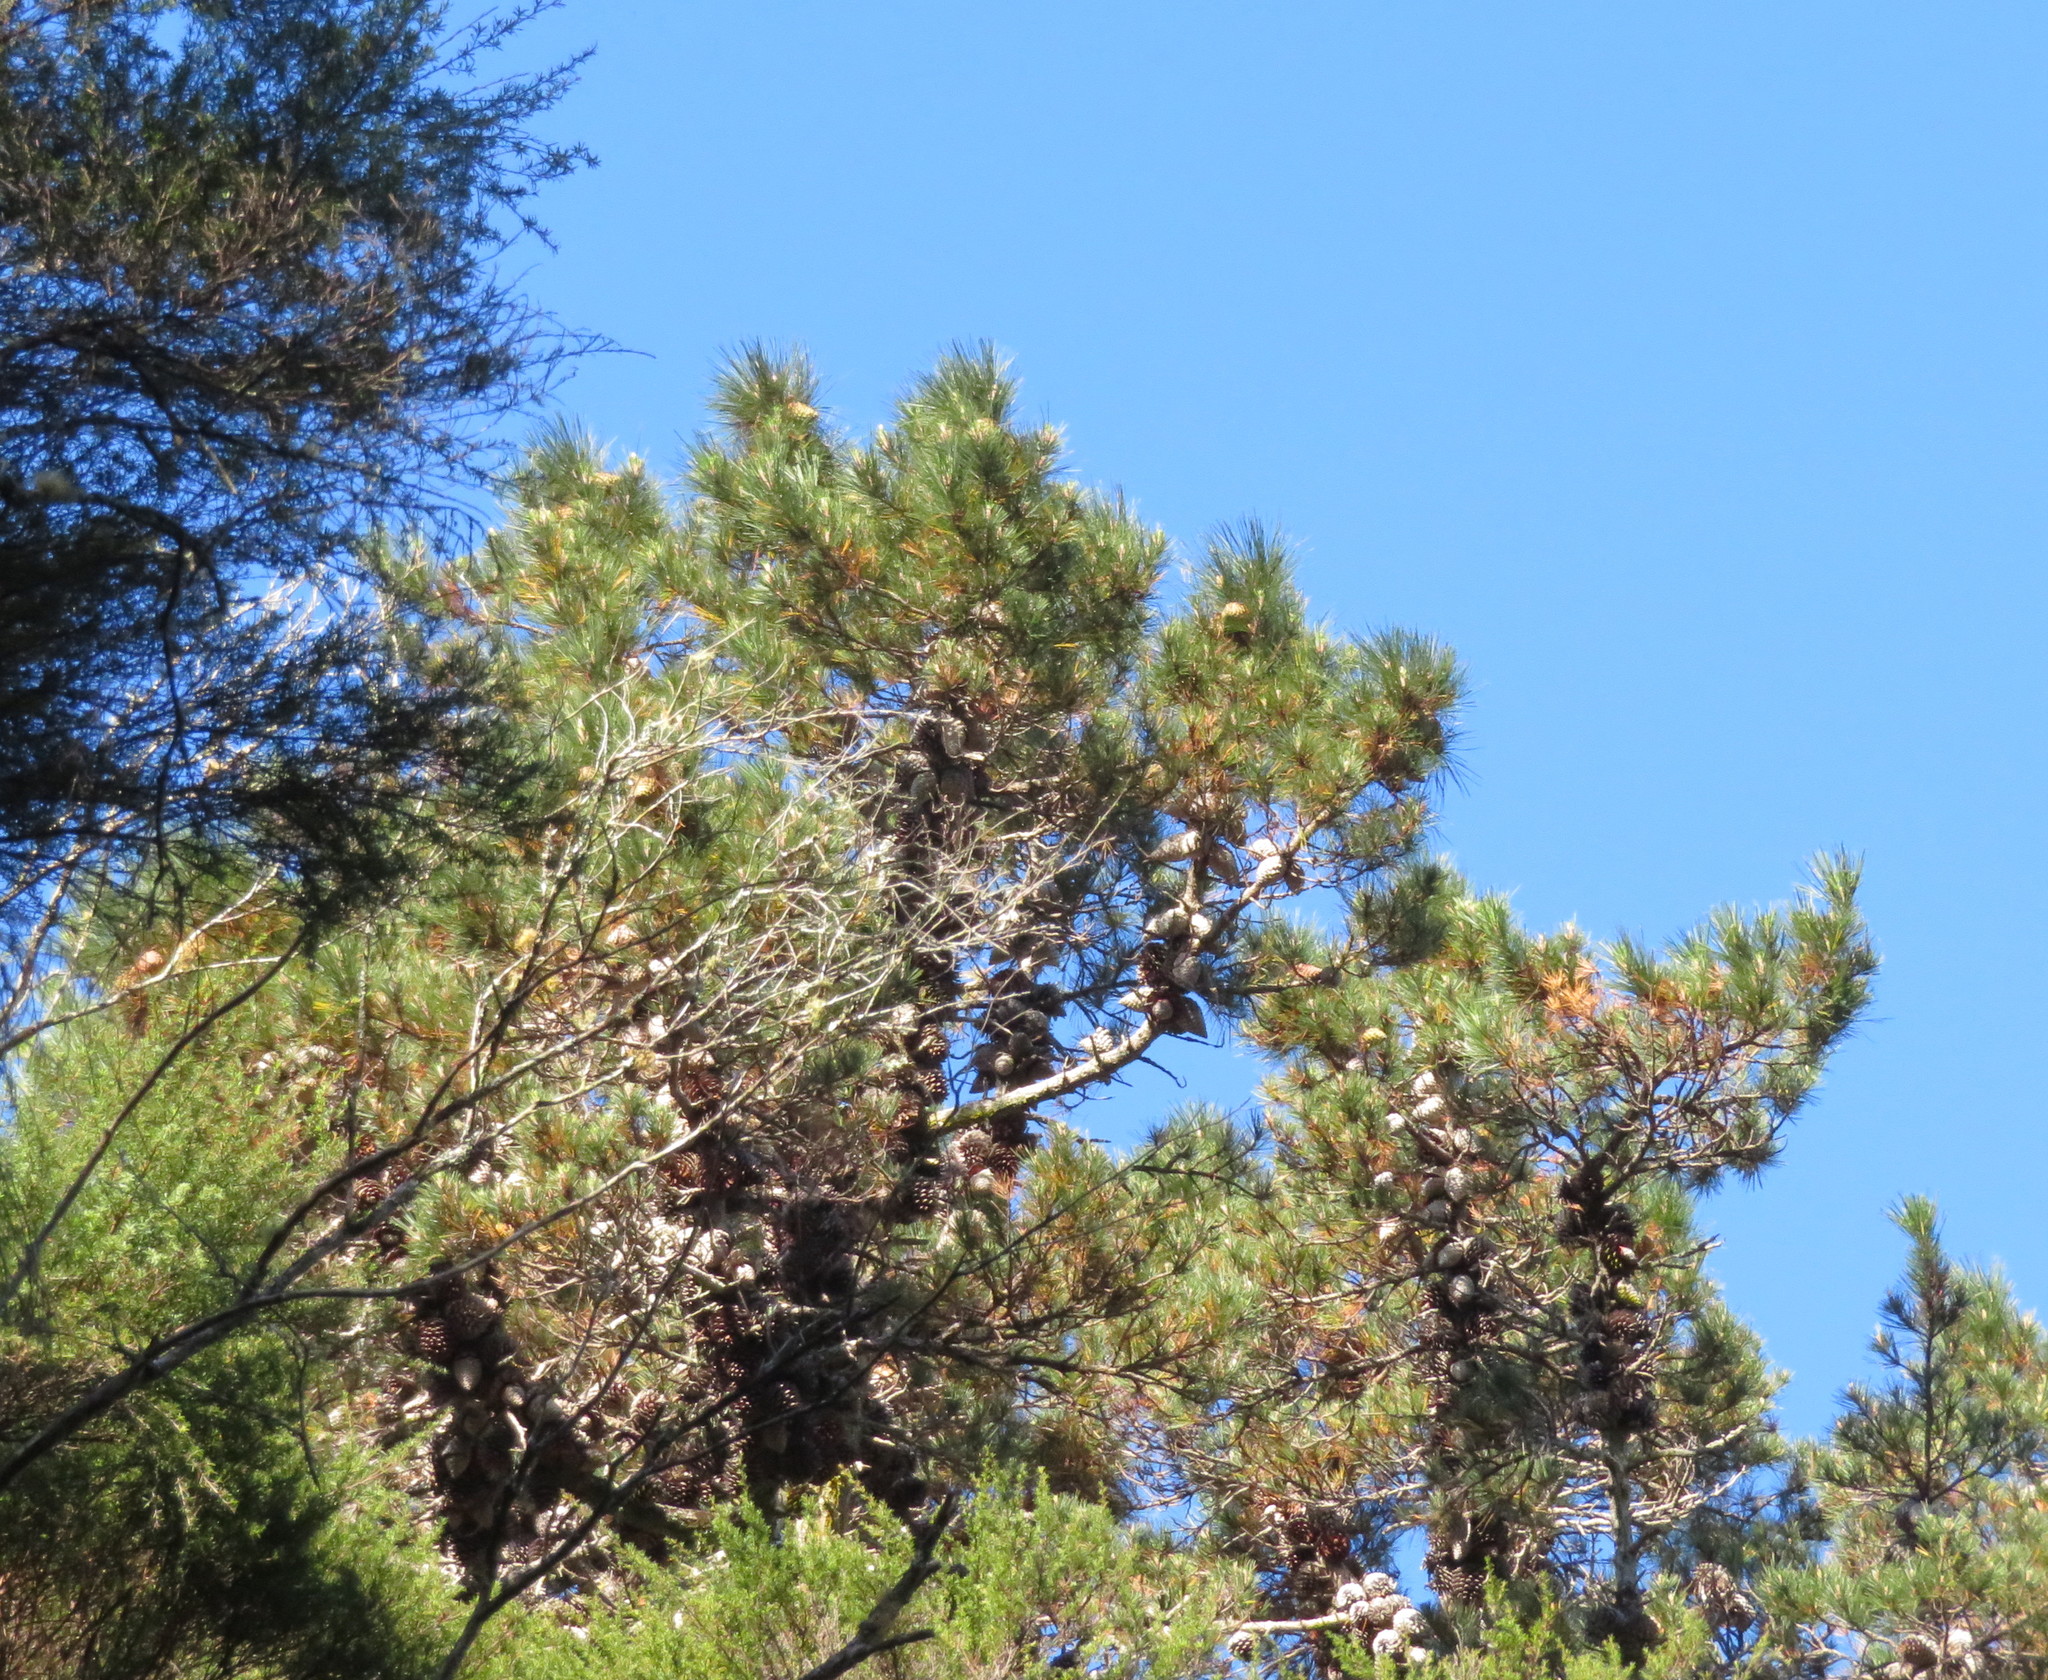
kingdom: Plantae
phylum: Tracheophyta
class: Pinopsida
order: Pinales
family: Pinaceae
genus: Pinus
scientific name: Pinus radiata
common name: Monterey pine
